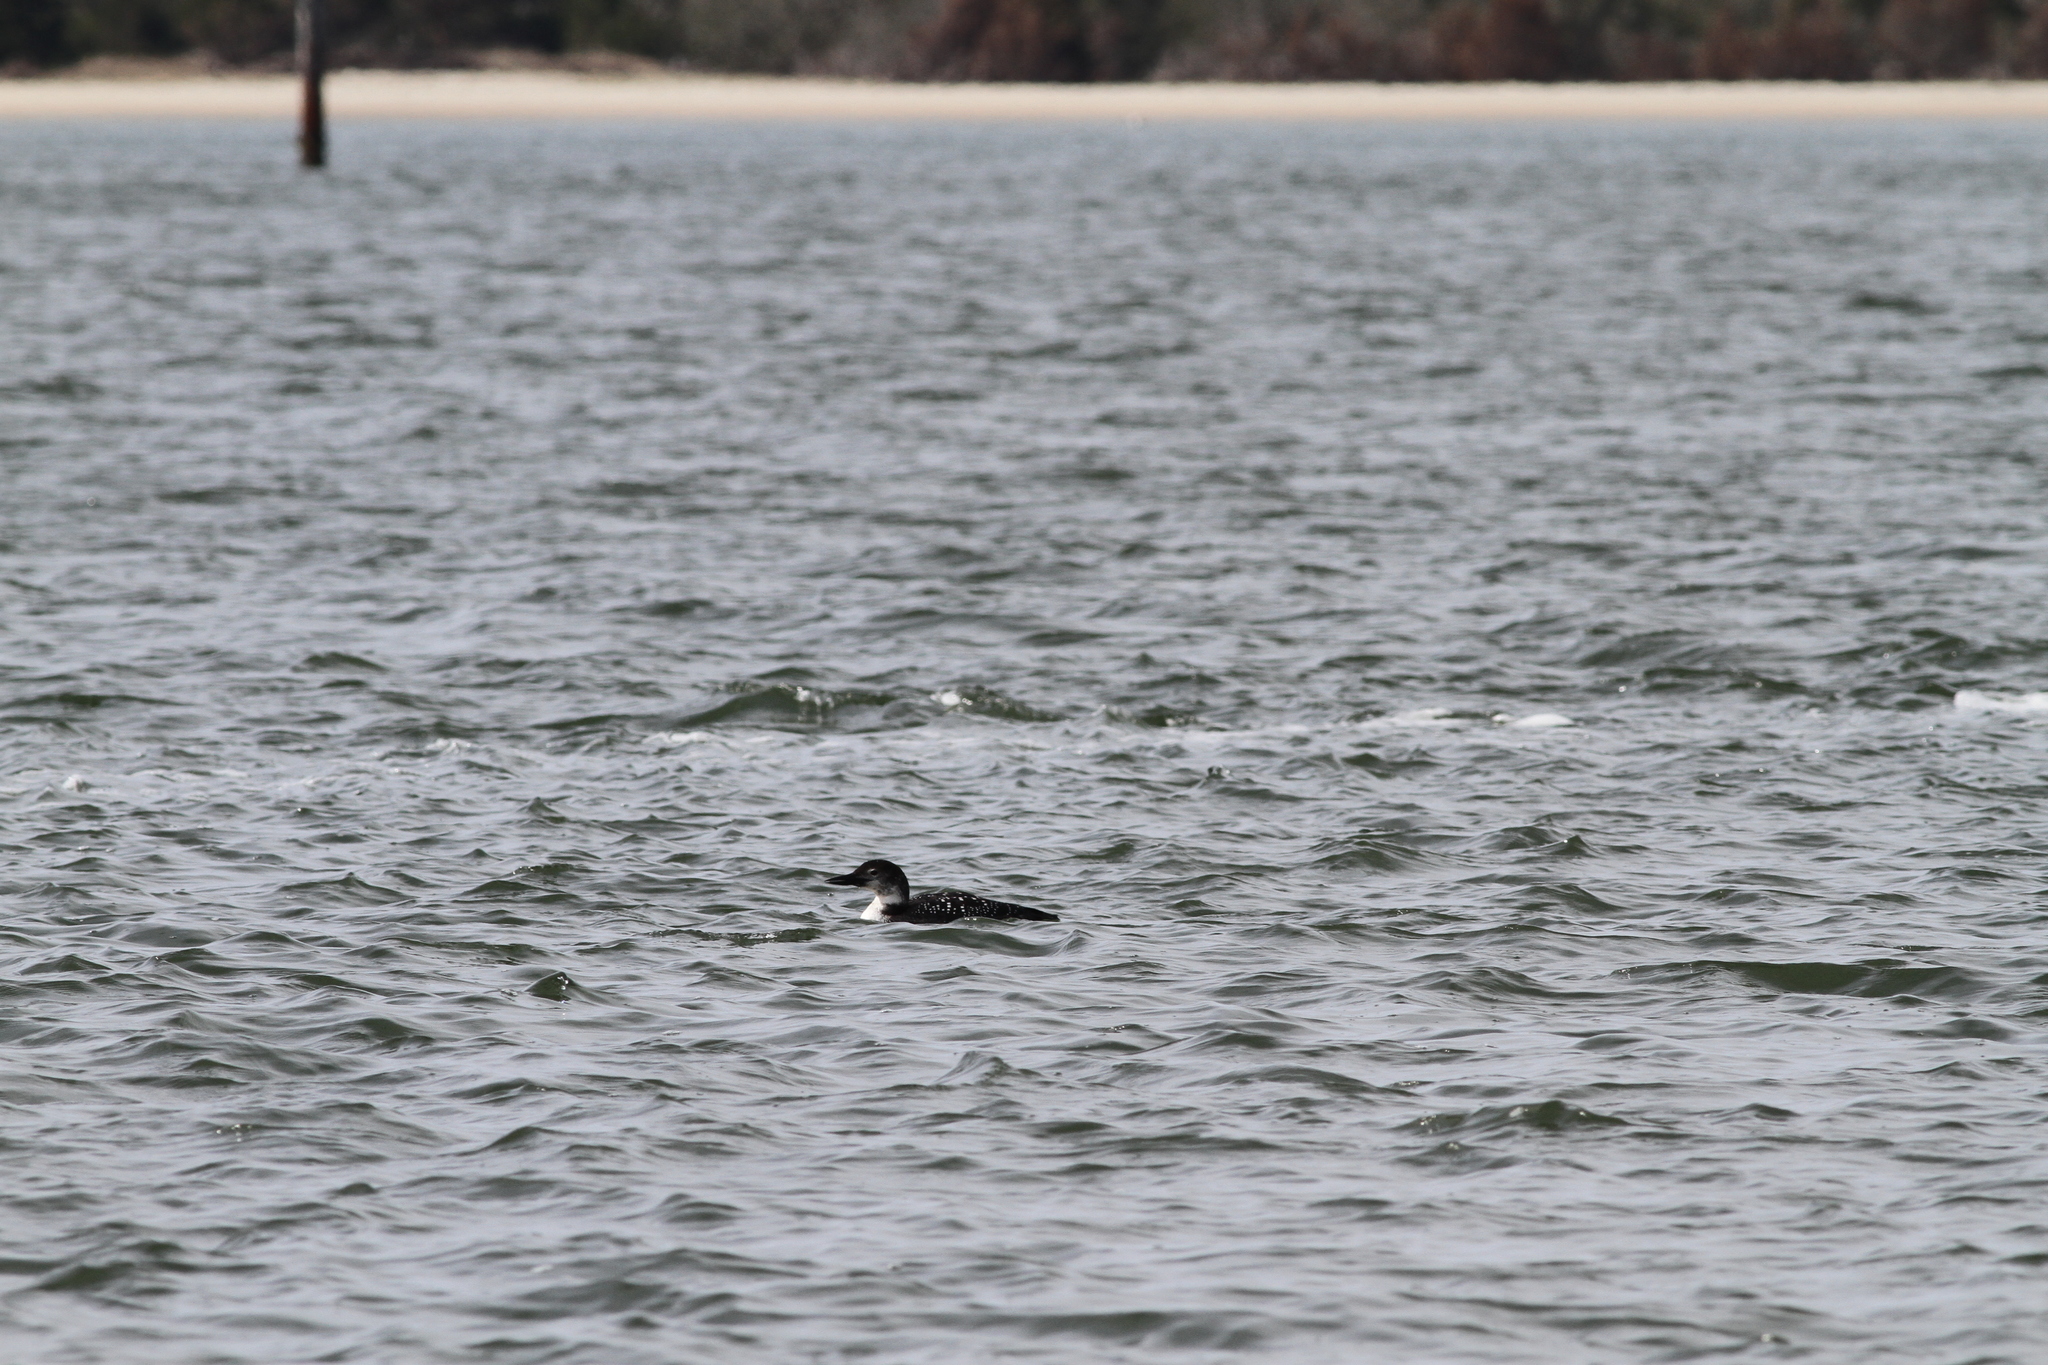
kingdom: Animalia
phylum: Chordata
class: Aves
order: Gaviiformes
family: Gaviidae
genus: Gavia
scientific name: Gavia immer
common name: Common loon
